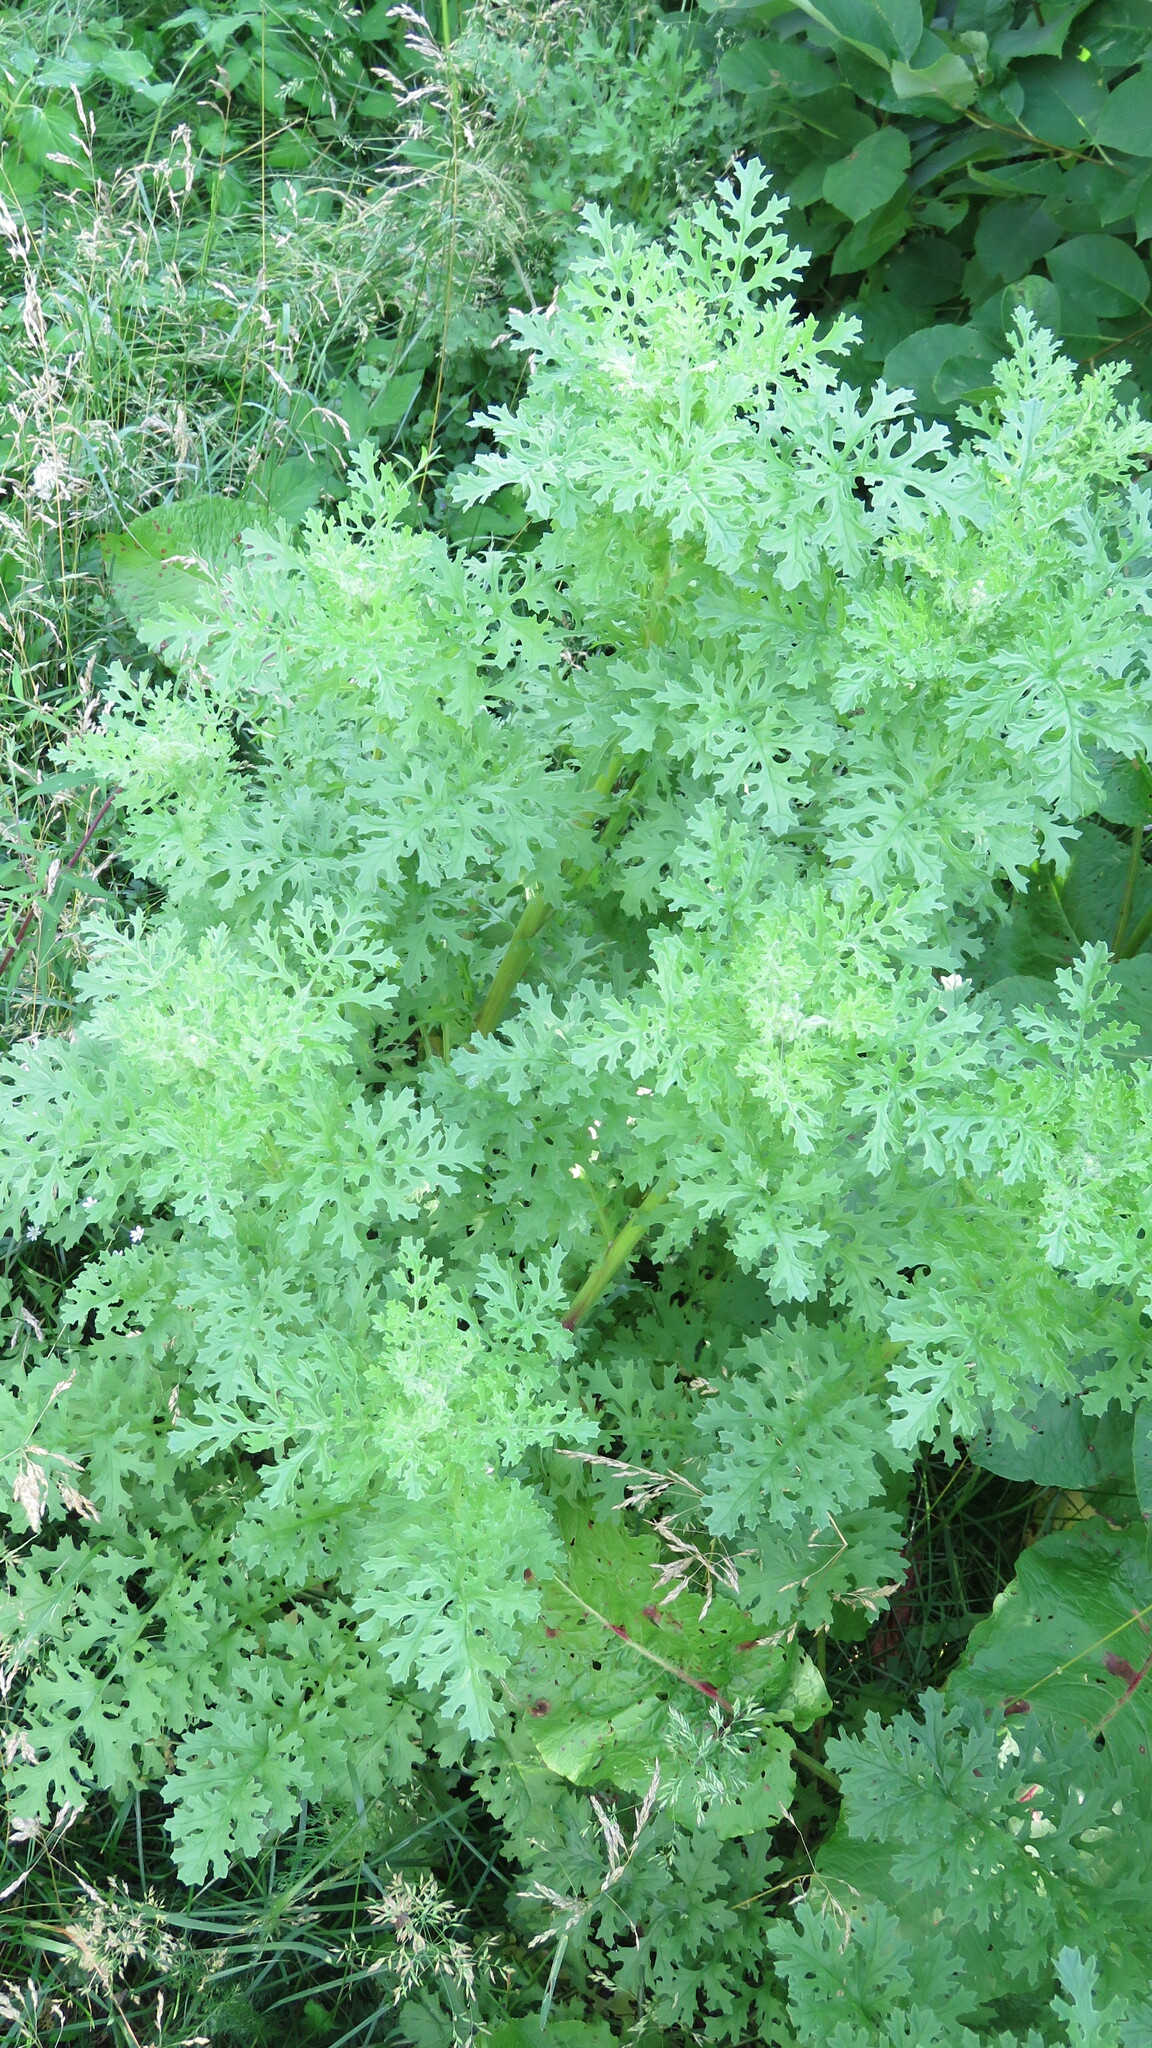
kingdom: Plantae
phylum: Tracheophyta
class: Magnoliopsida
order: Asterales
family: Asteraceae
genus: Jacobaea
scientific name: Jacobaea vulgaris
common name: Stinking willie
